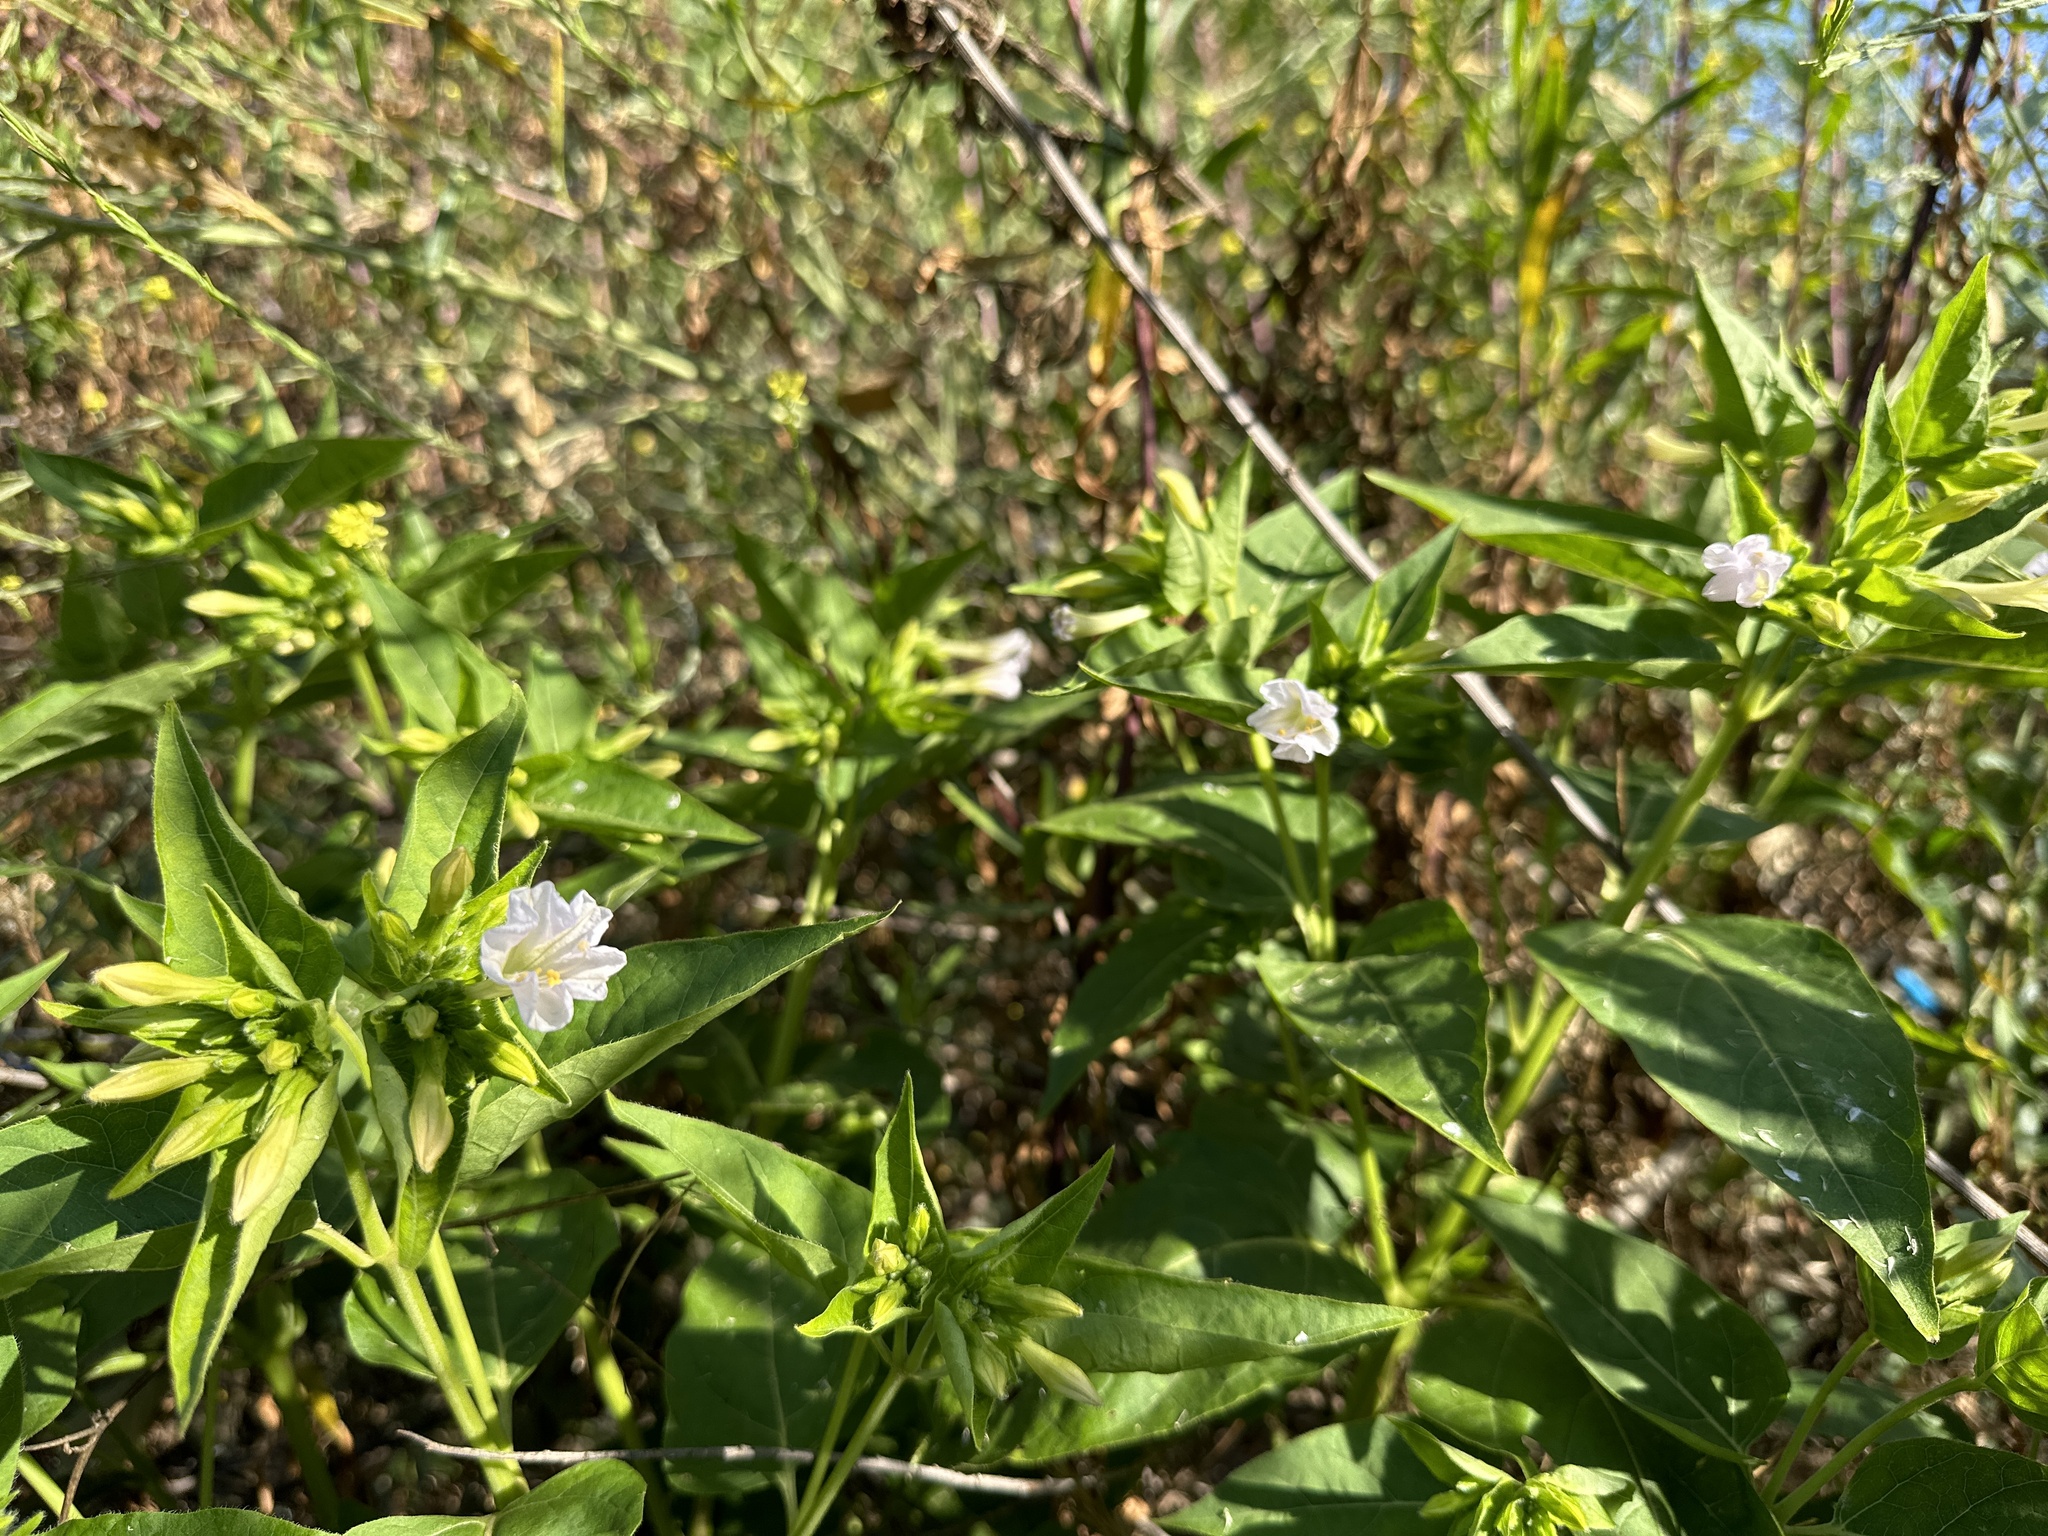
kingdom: Plantae
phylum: Tracheophyta
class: Magnoliopsida
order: Caryophyllales
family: Nyctaginaceae
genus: Mirabilis
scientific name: Mirabilis jalapa
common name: Marvel-of-peru
